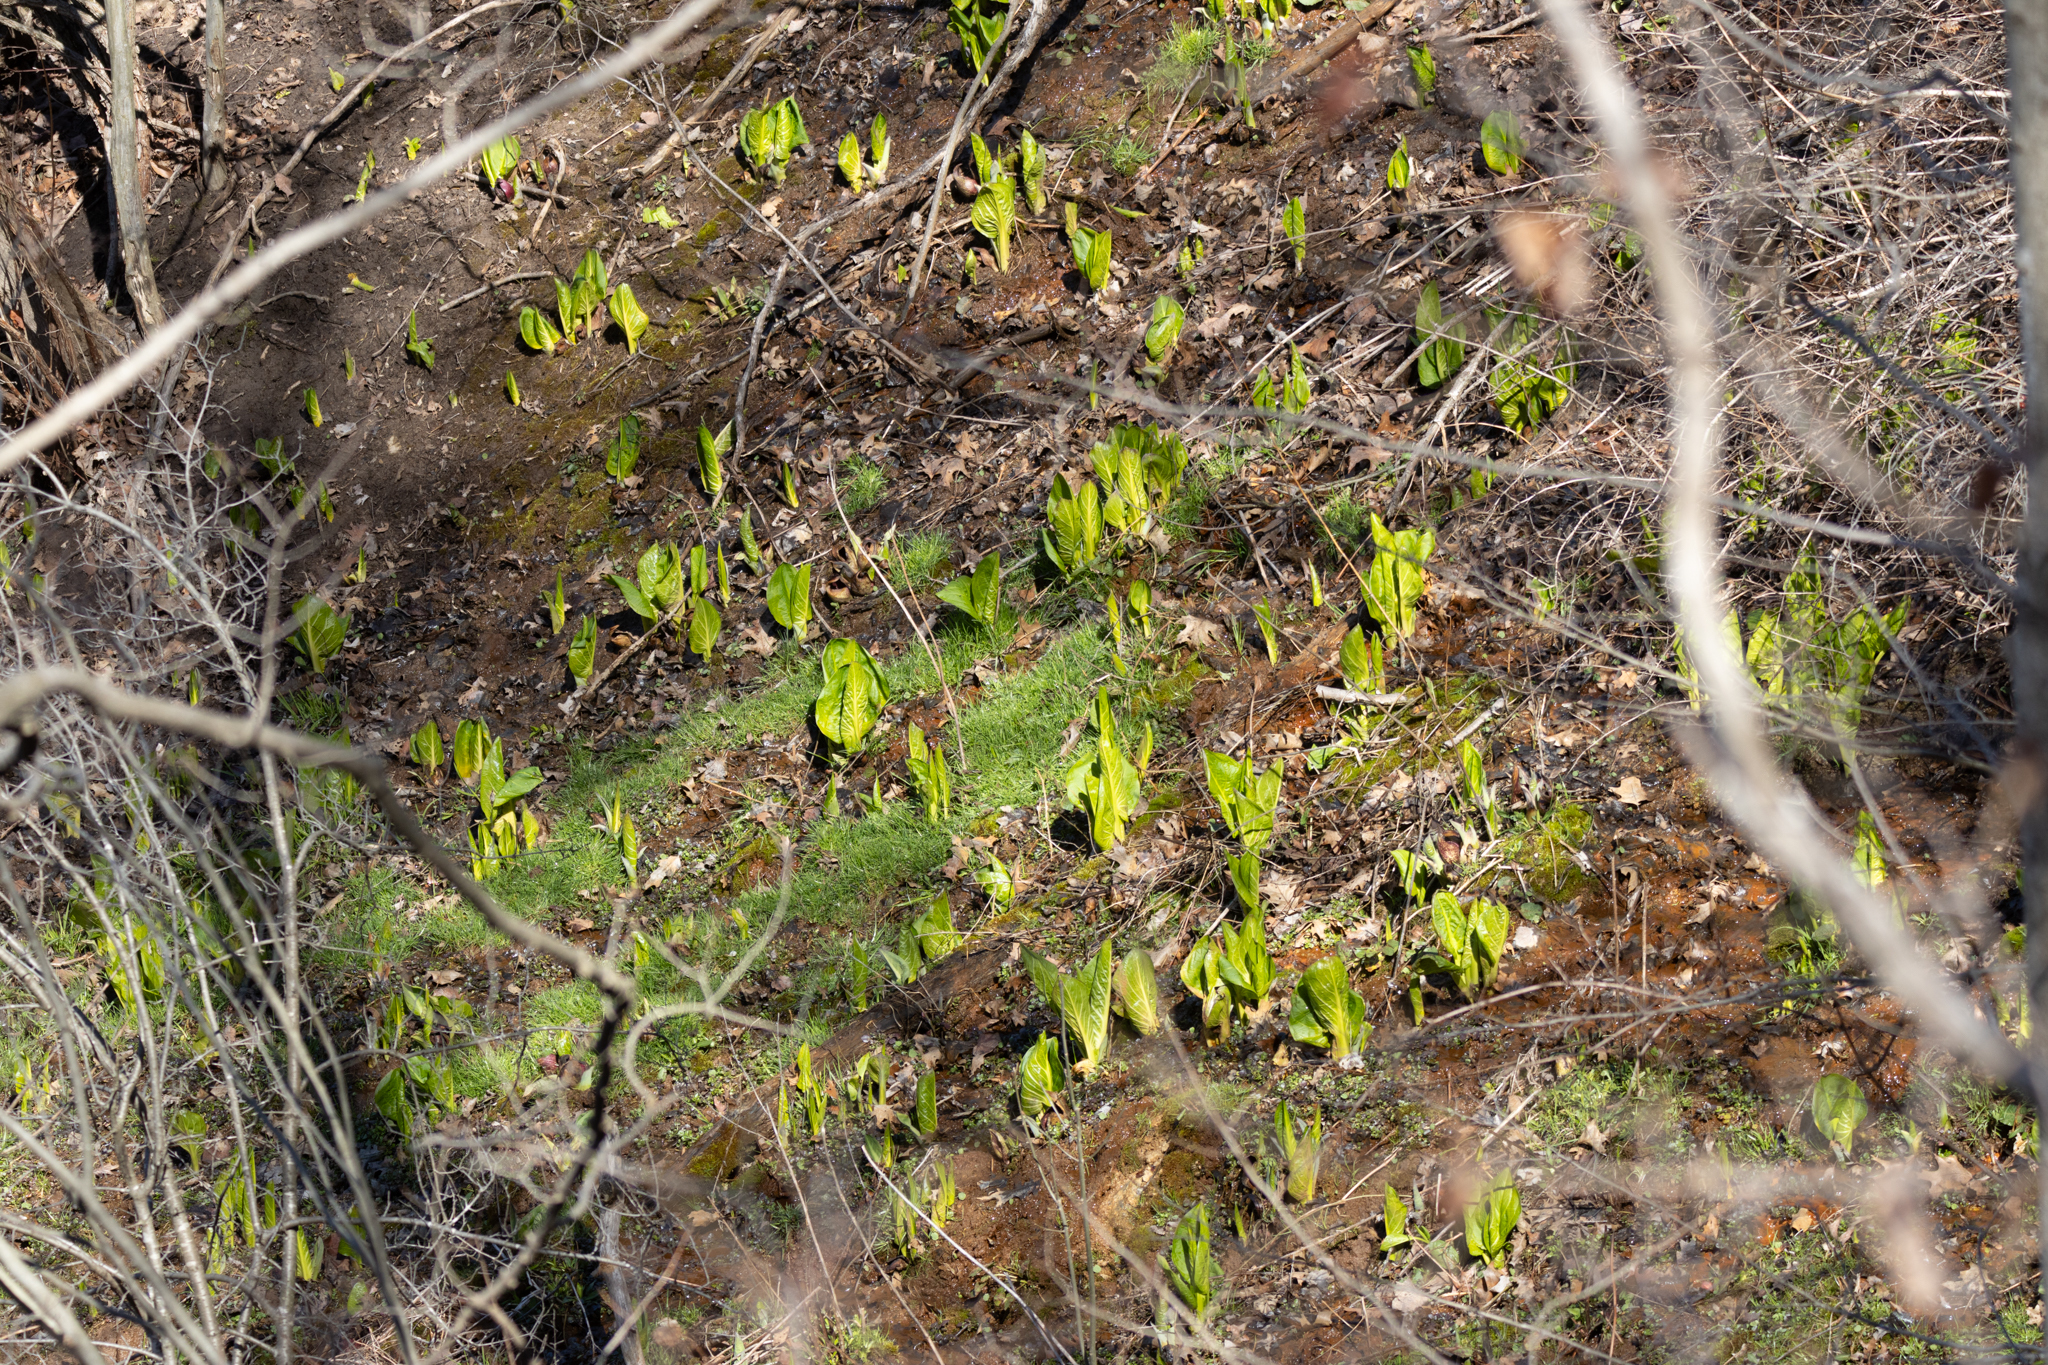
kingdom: Plantae
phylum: Tracheophyta
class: Liliopsida
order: Alismatales
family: Araceae
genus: Symplocarpus
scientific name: Symplocarpus foetidus
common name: Eastern skunk cabbage
